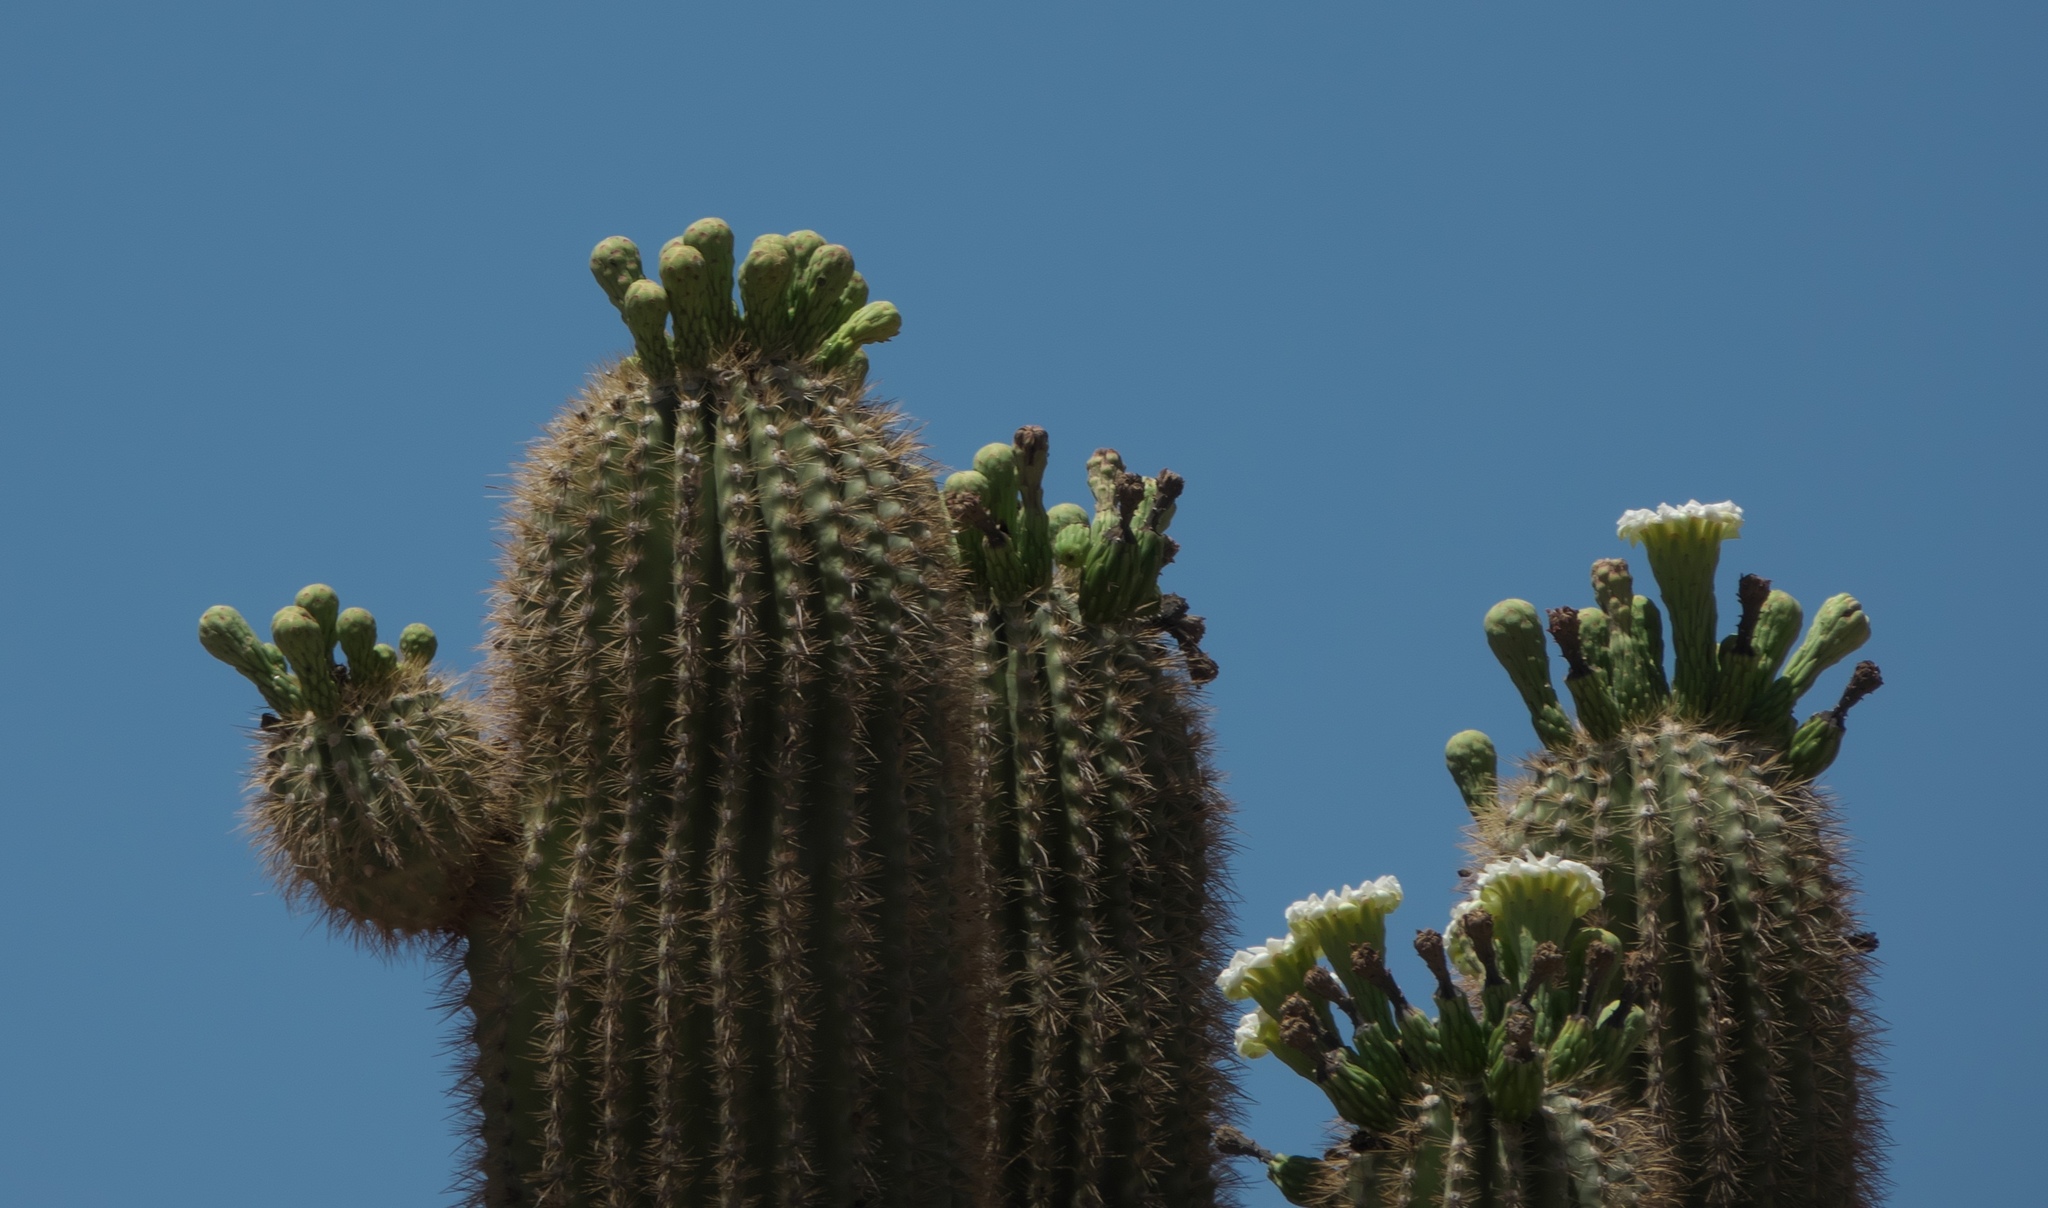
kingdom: Plantae
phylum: Tracheophyta
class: Magnoliopsida
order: Caryophyllales
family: Cactaceae
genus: Carnegiea
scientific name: Carnegiea gigantea
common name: Saguaro
